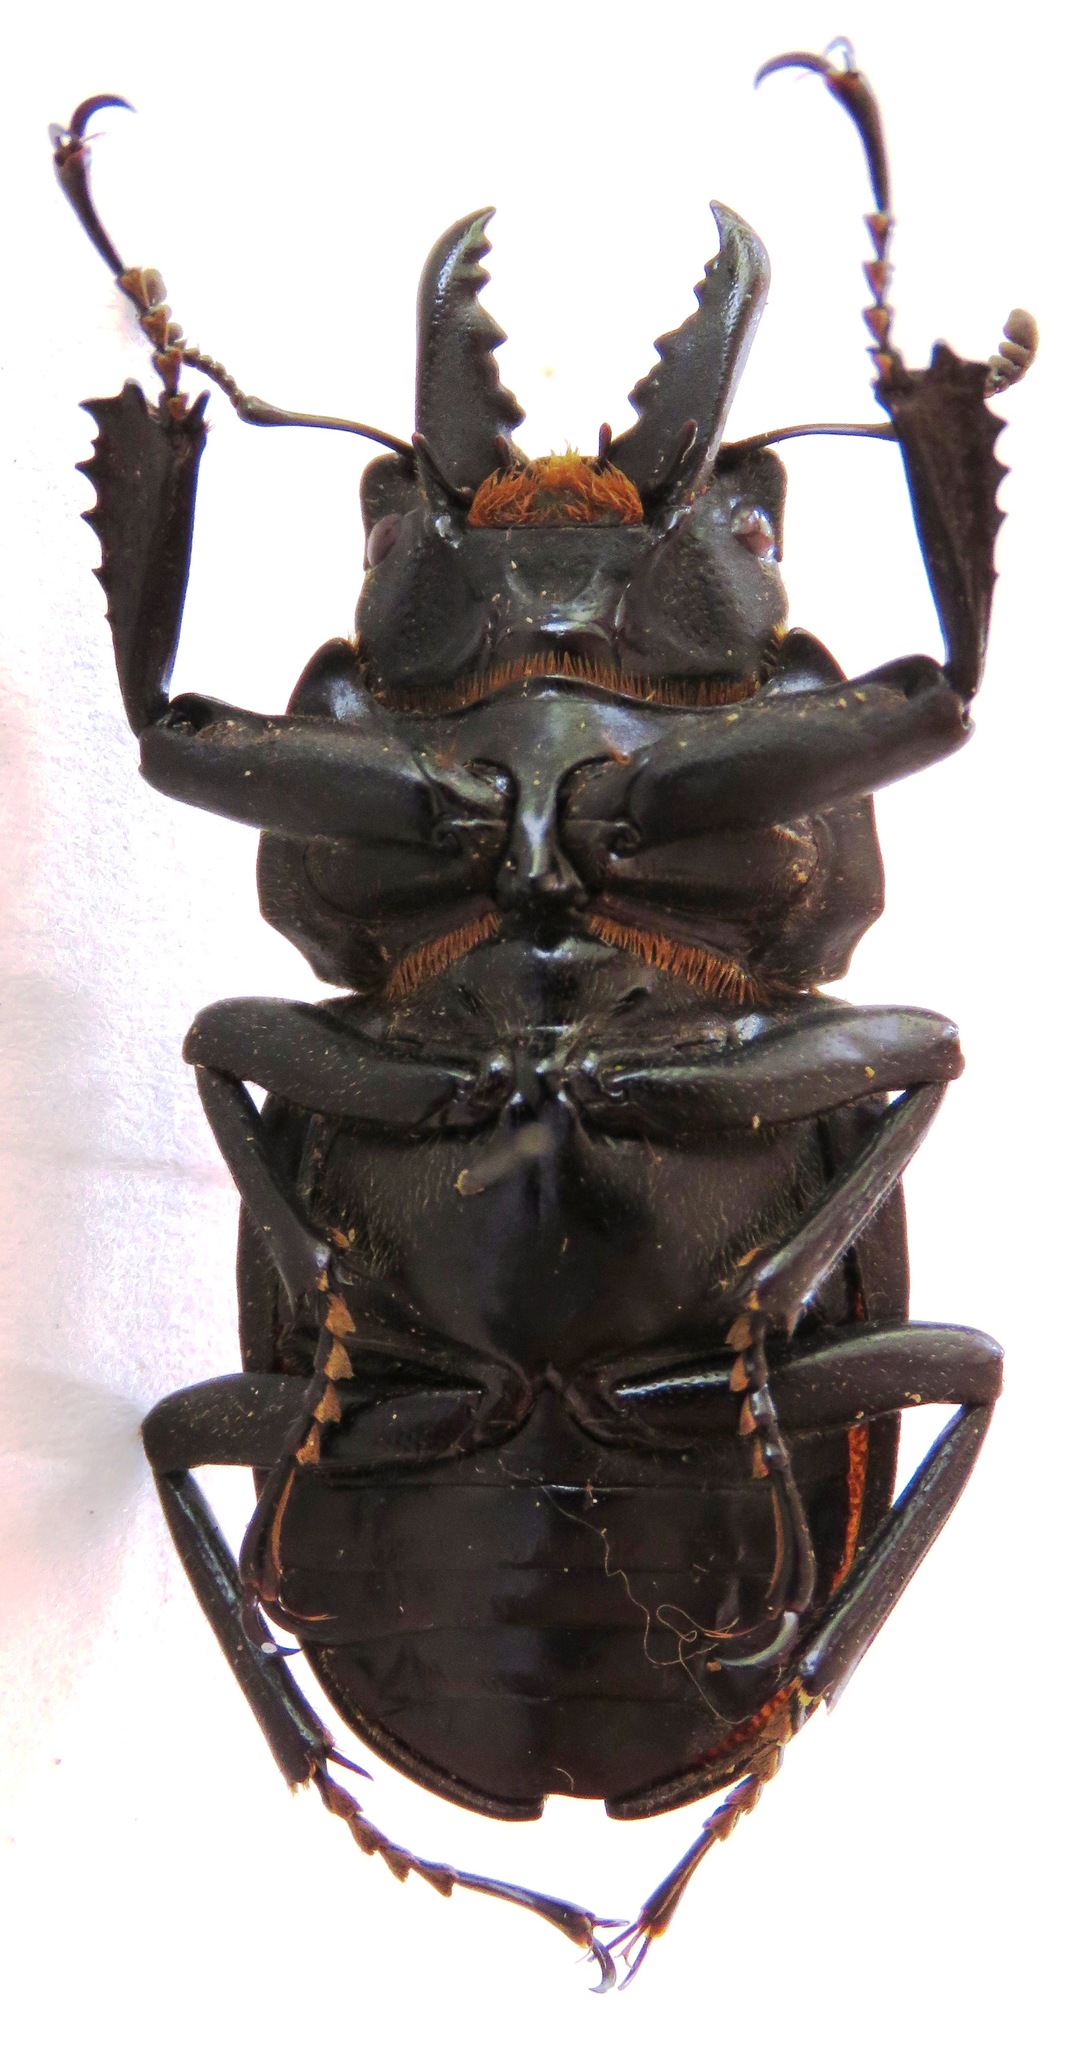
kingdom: Animalia
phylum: Arthropoda
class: Insecta
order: Coleoptera
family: Lucanidae
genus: Neolucanus
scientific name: Neolucanus vicinus
